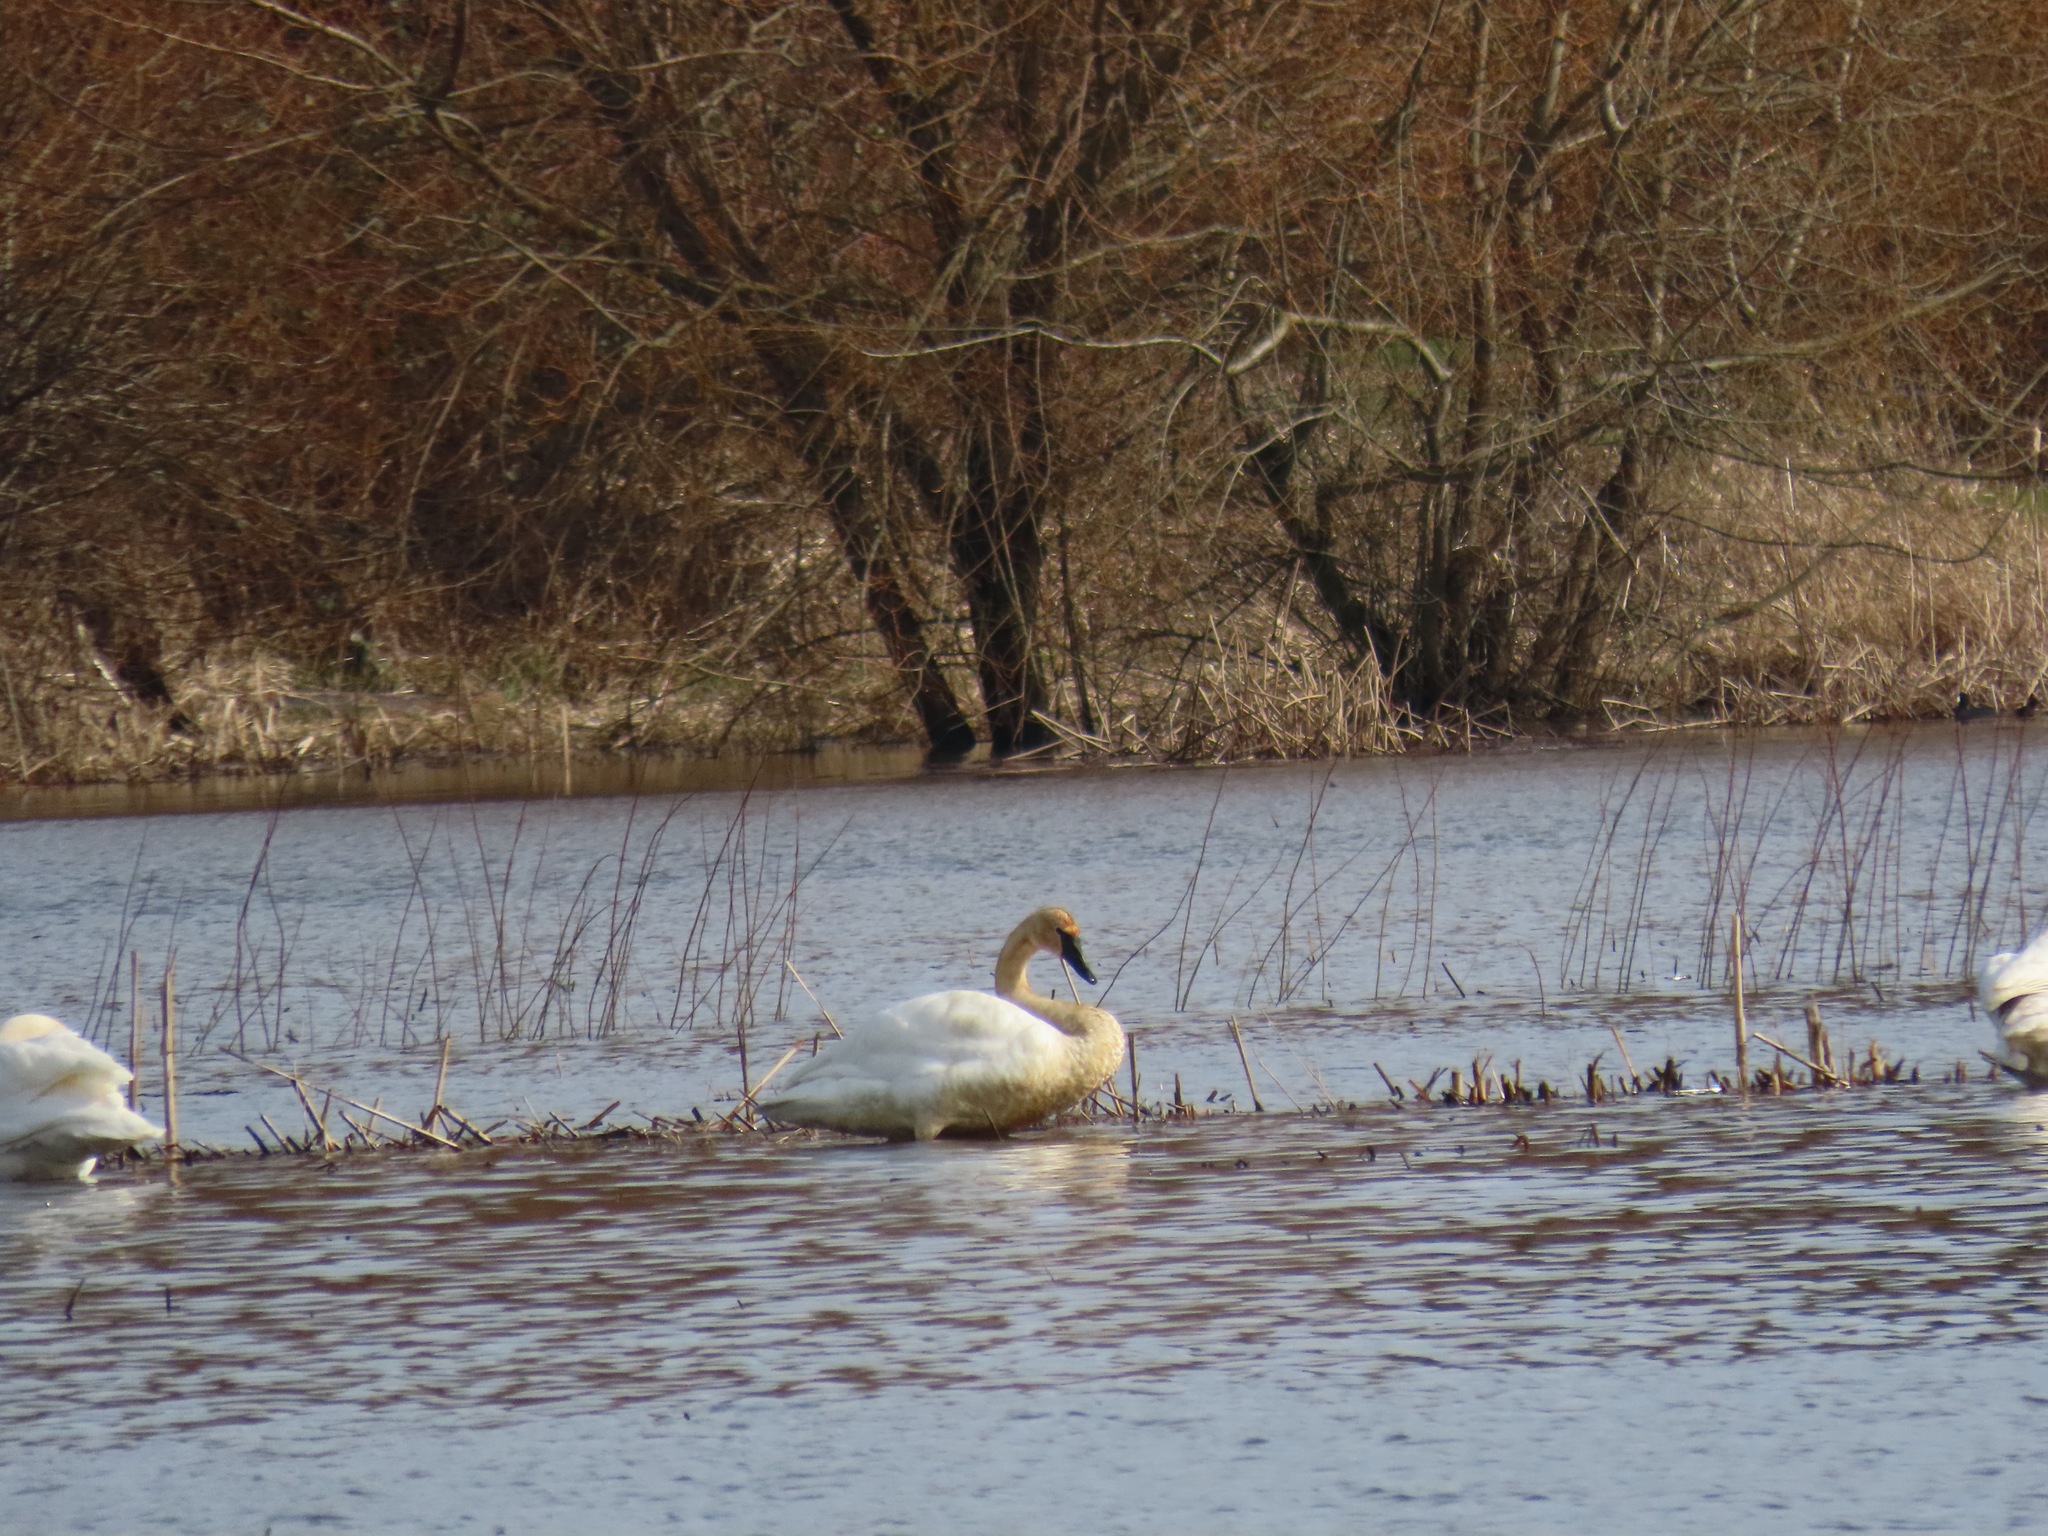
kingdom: Animalia
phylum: Chordata
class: Aves
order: Anseriformes
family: Anatidae
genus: Cygnus
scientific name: Cygnus buccinator
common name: Trumpeter swan
